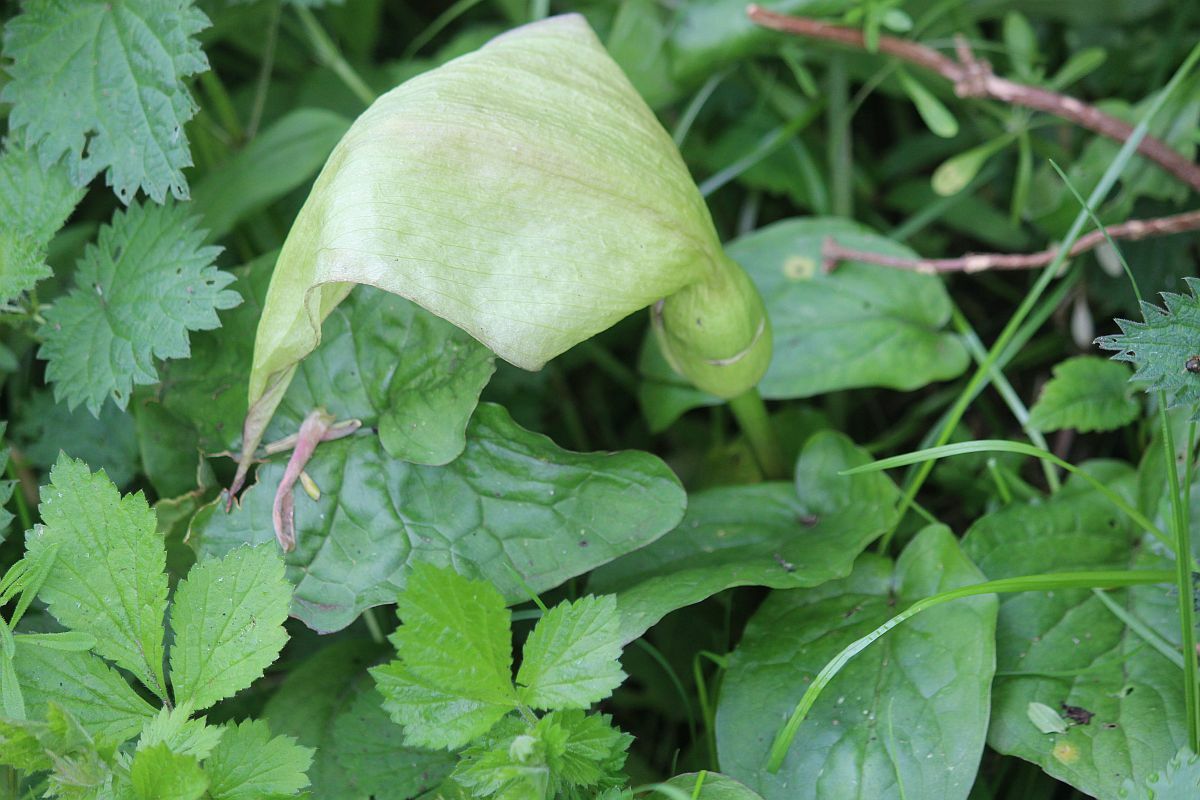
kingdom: Plantae
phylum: Tracheophyta
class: Liliopsida
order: Alismatales
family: Araceae
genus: Arum
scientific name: Arum maculatum
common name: Lords-and-ladies
